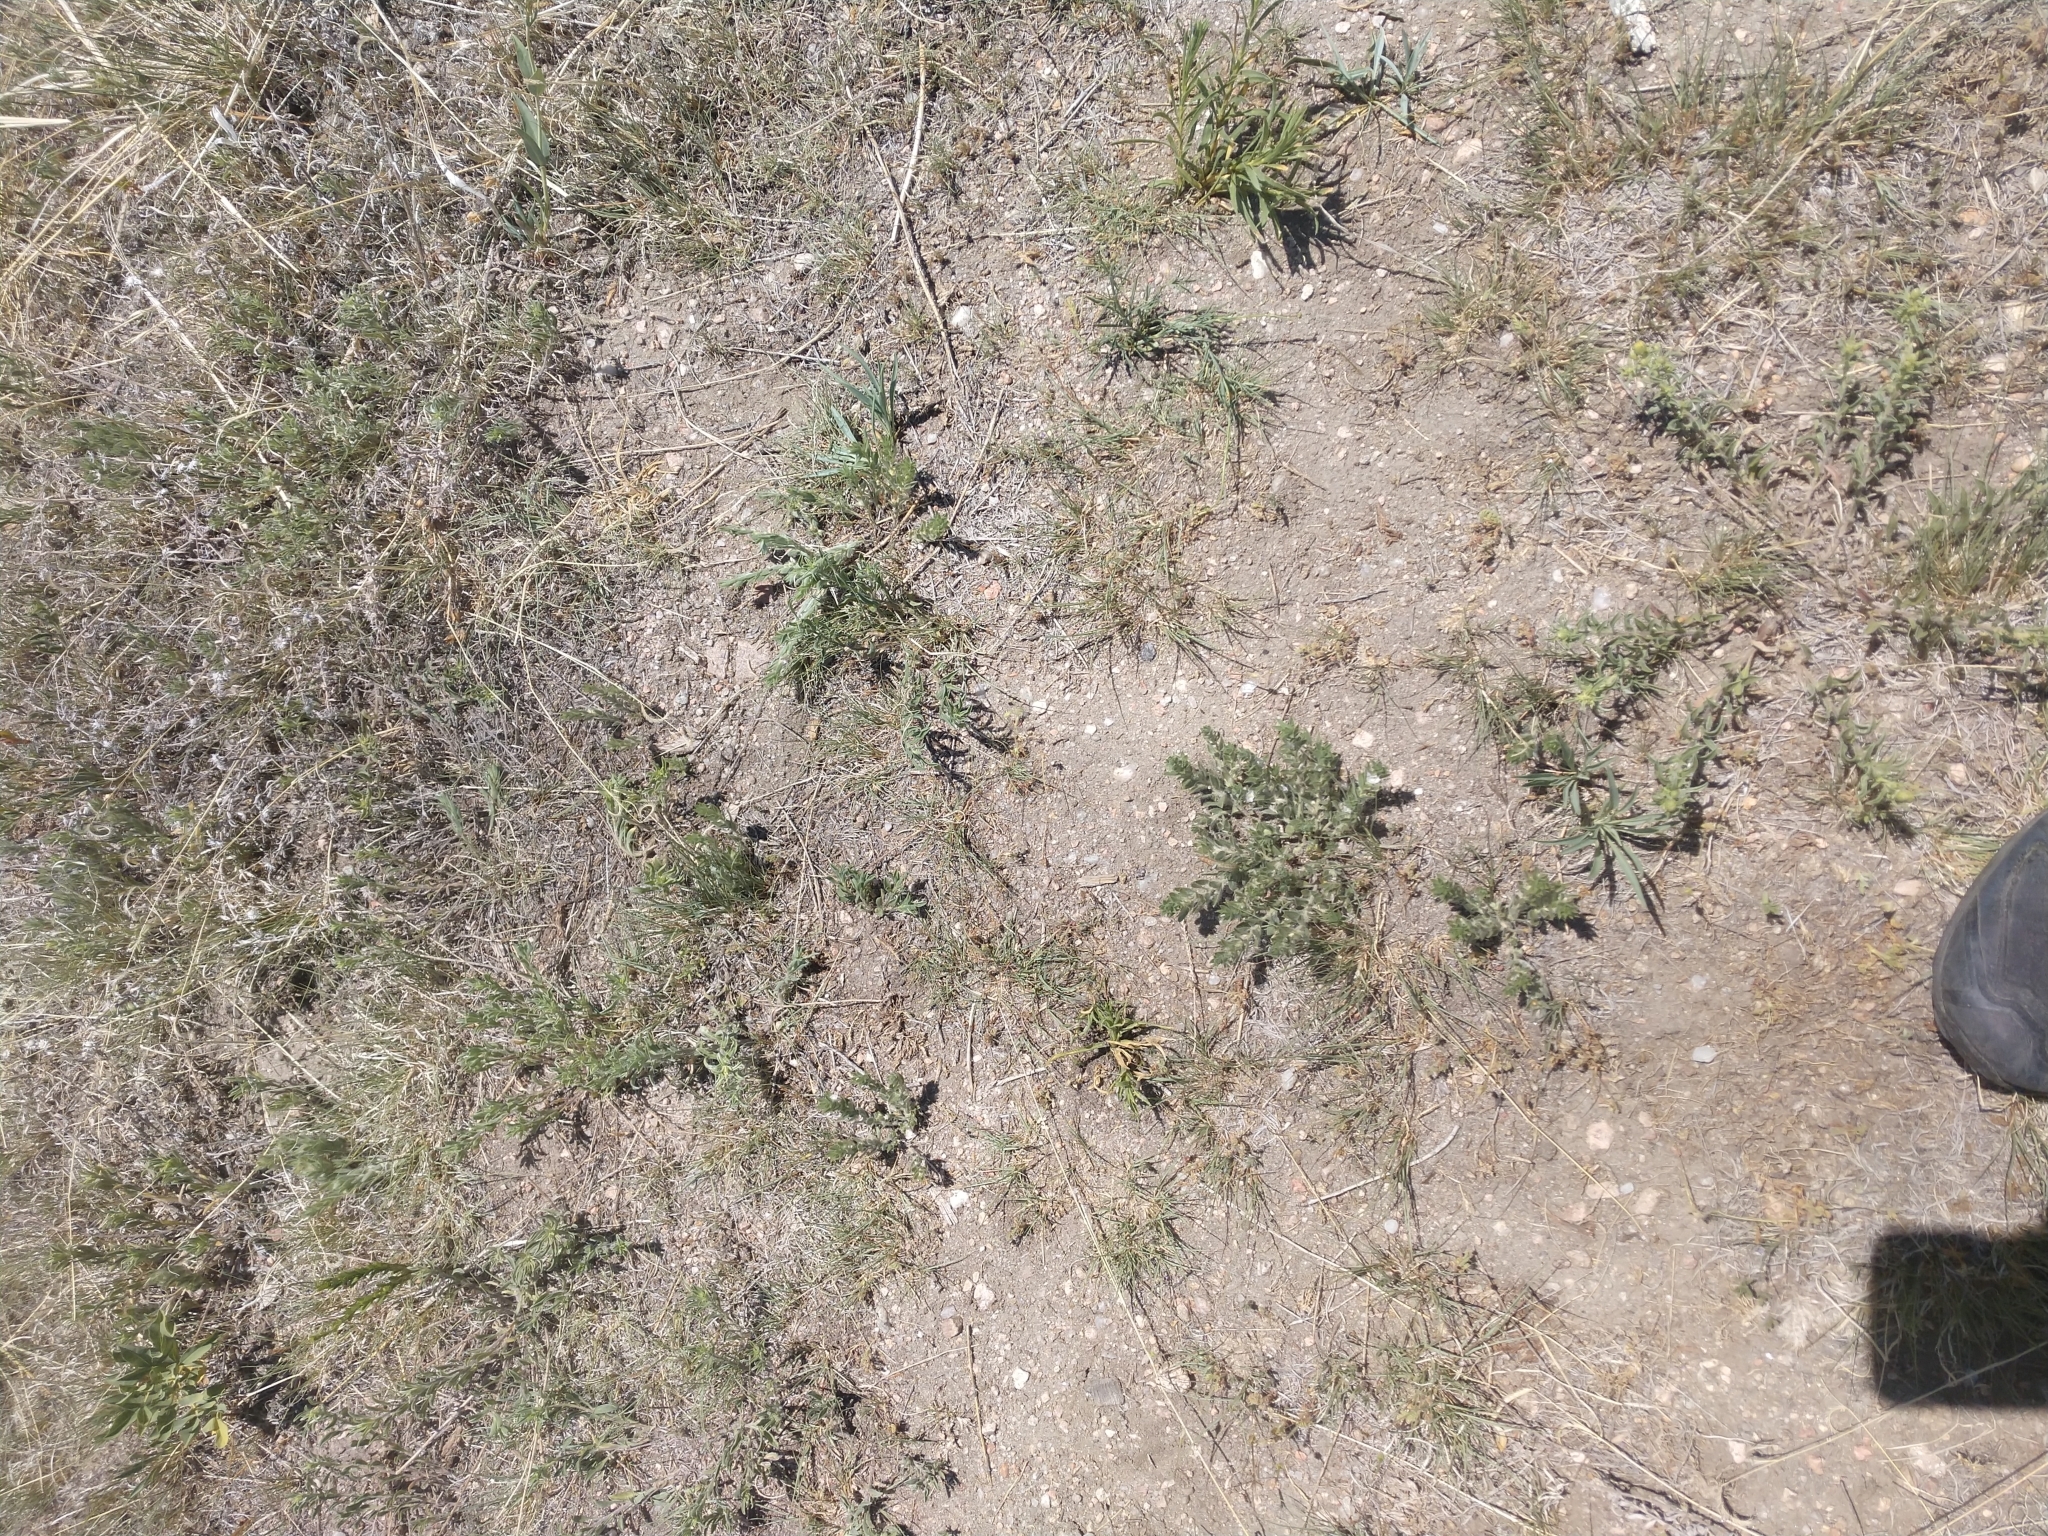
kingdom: Plantae
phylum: Tracheophyta
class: Magnoliopsida
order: Solanales
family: Convolvulaceae
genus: Evolvulus
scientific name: Evolvulus nuttallianus
